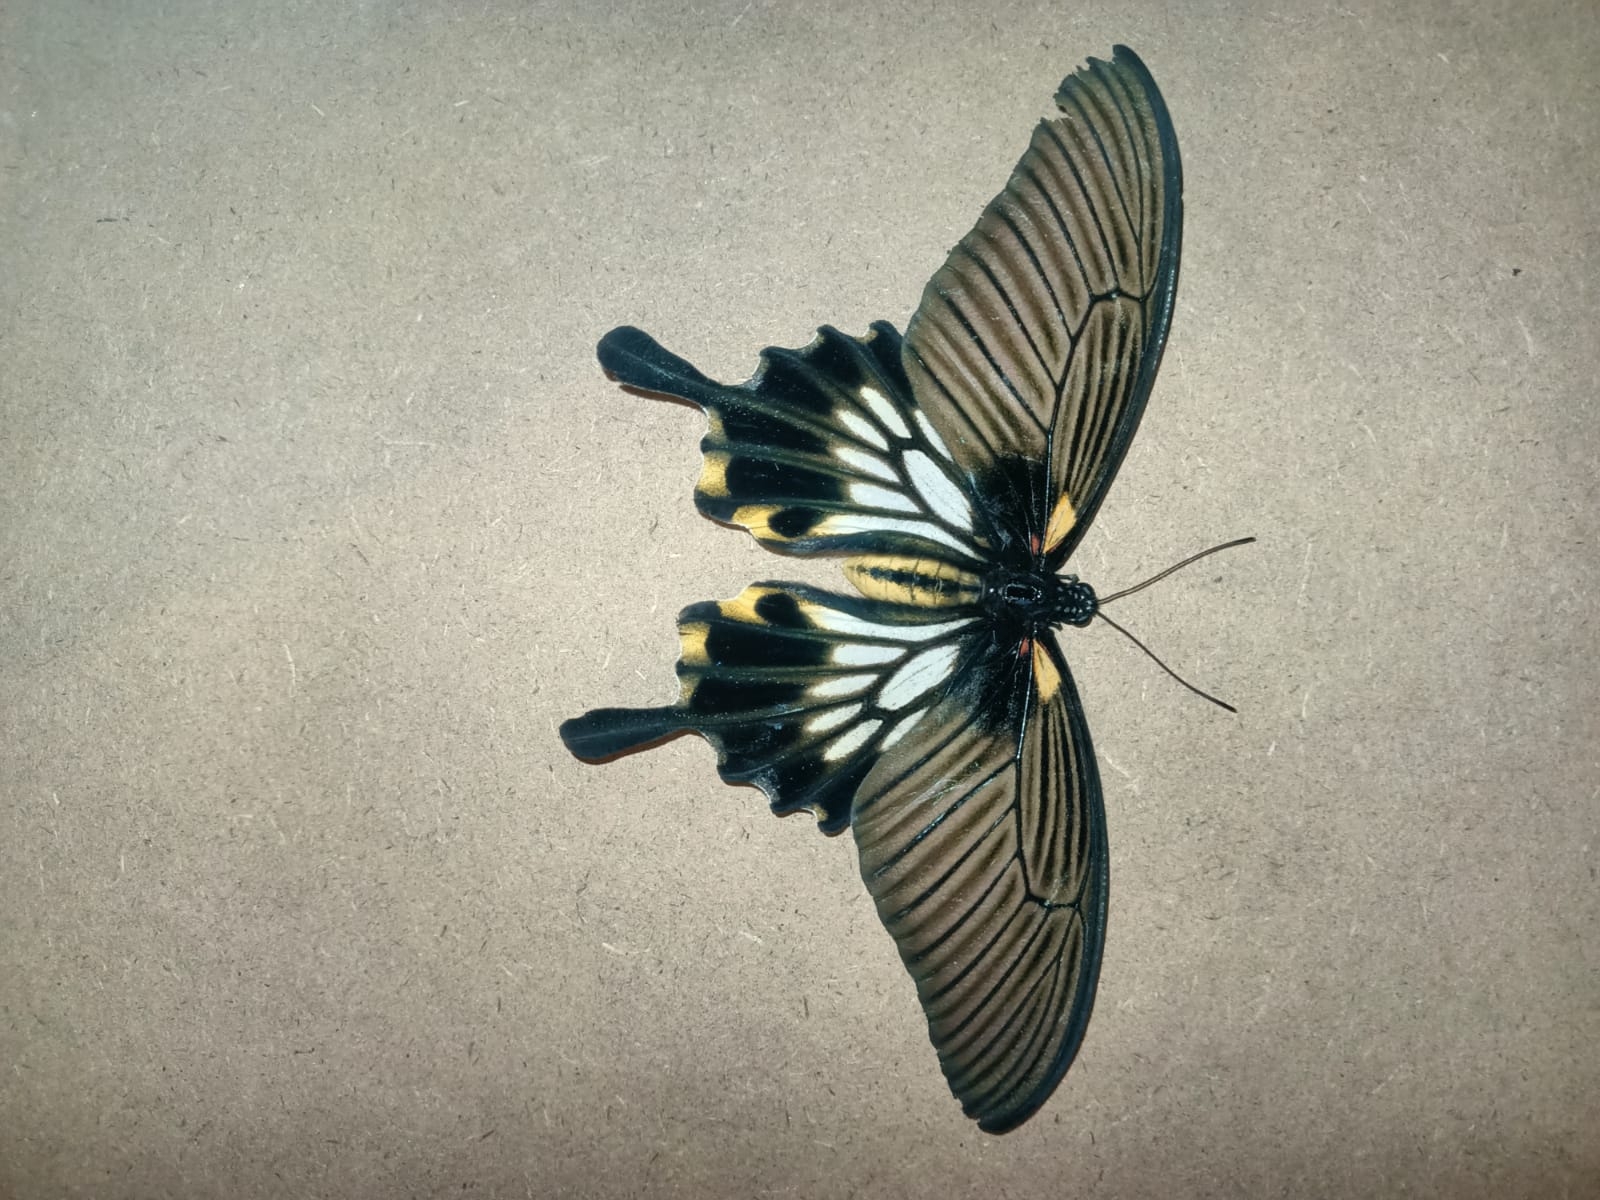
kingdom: Animalia
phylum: Arthropoda
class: Insecta
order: Lepidoptera
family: Papilionidae
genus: Papilio
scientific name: Papilio memnon
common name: Great mormon
